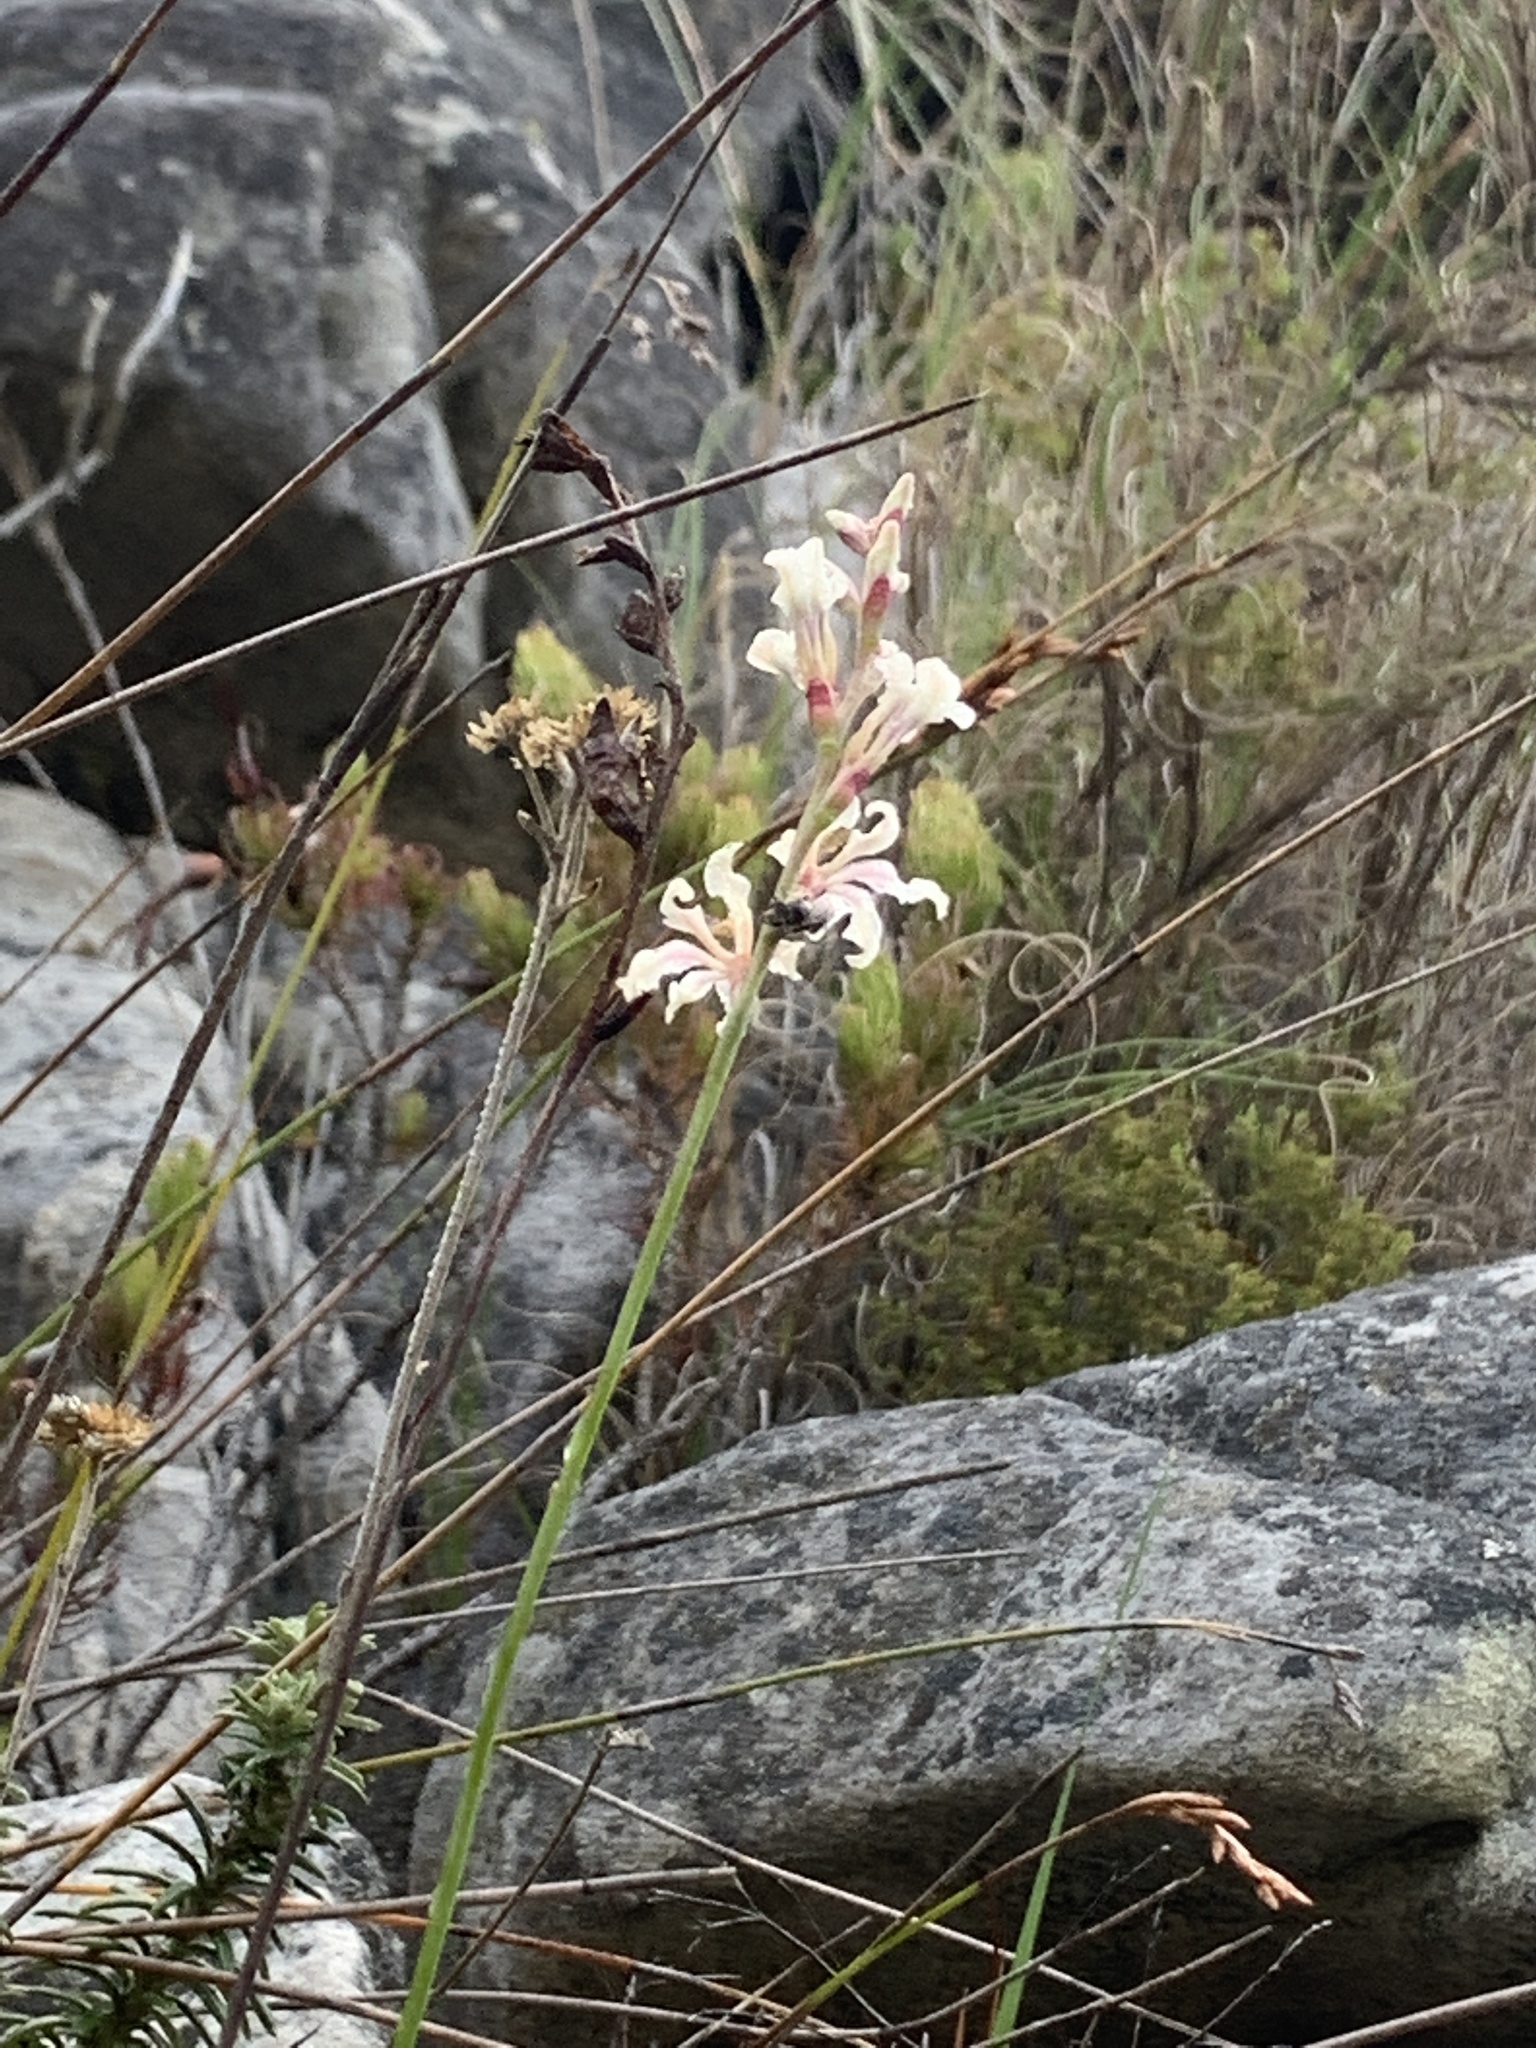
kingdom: Plantae
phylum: Tracheophyta
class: Liliopsida
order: Asparagales
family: Iridaceae
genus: Tritoniopsis
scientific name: Tritoniopsis unguicularis
